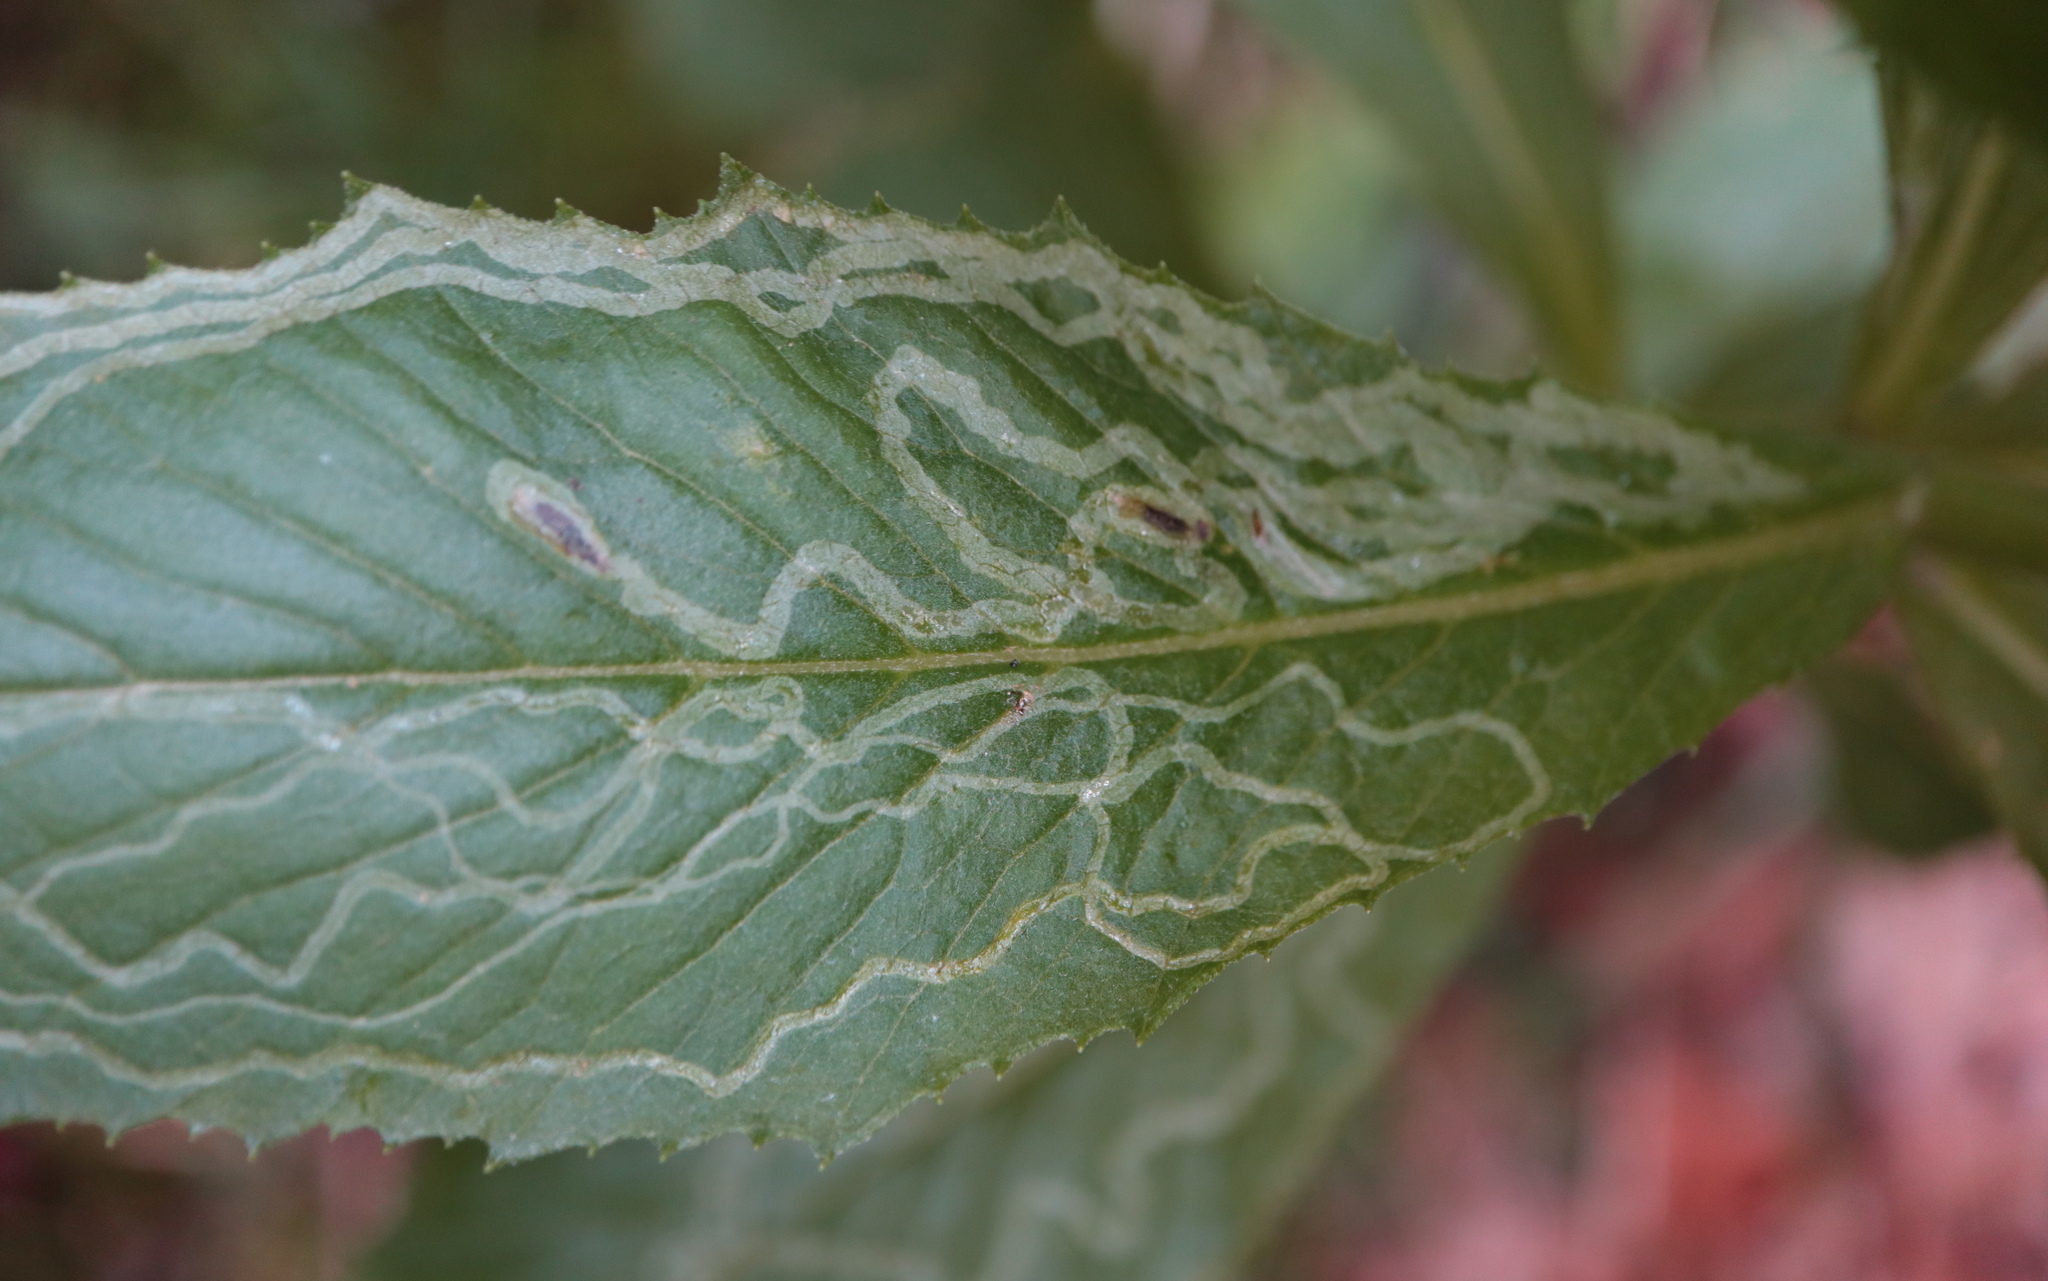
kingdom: Animalia
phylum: Arthropoda
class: Insecta
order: Lepidoptera
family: Gracillariidae
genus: Phyllocnistis
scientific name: Phyllocnistis insignis
